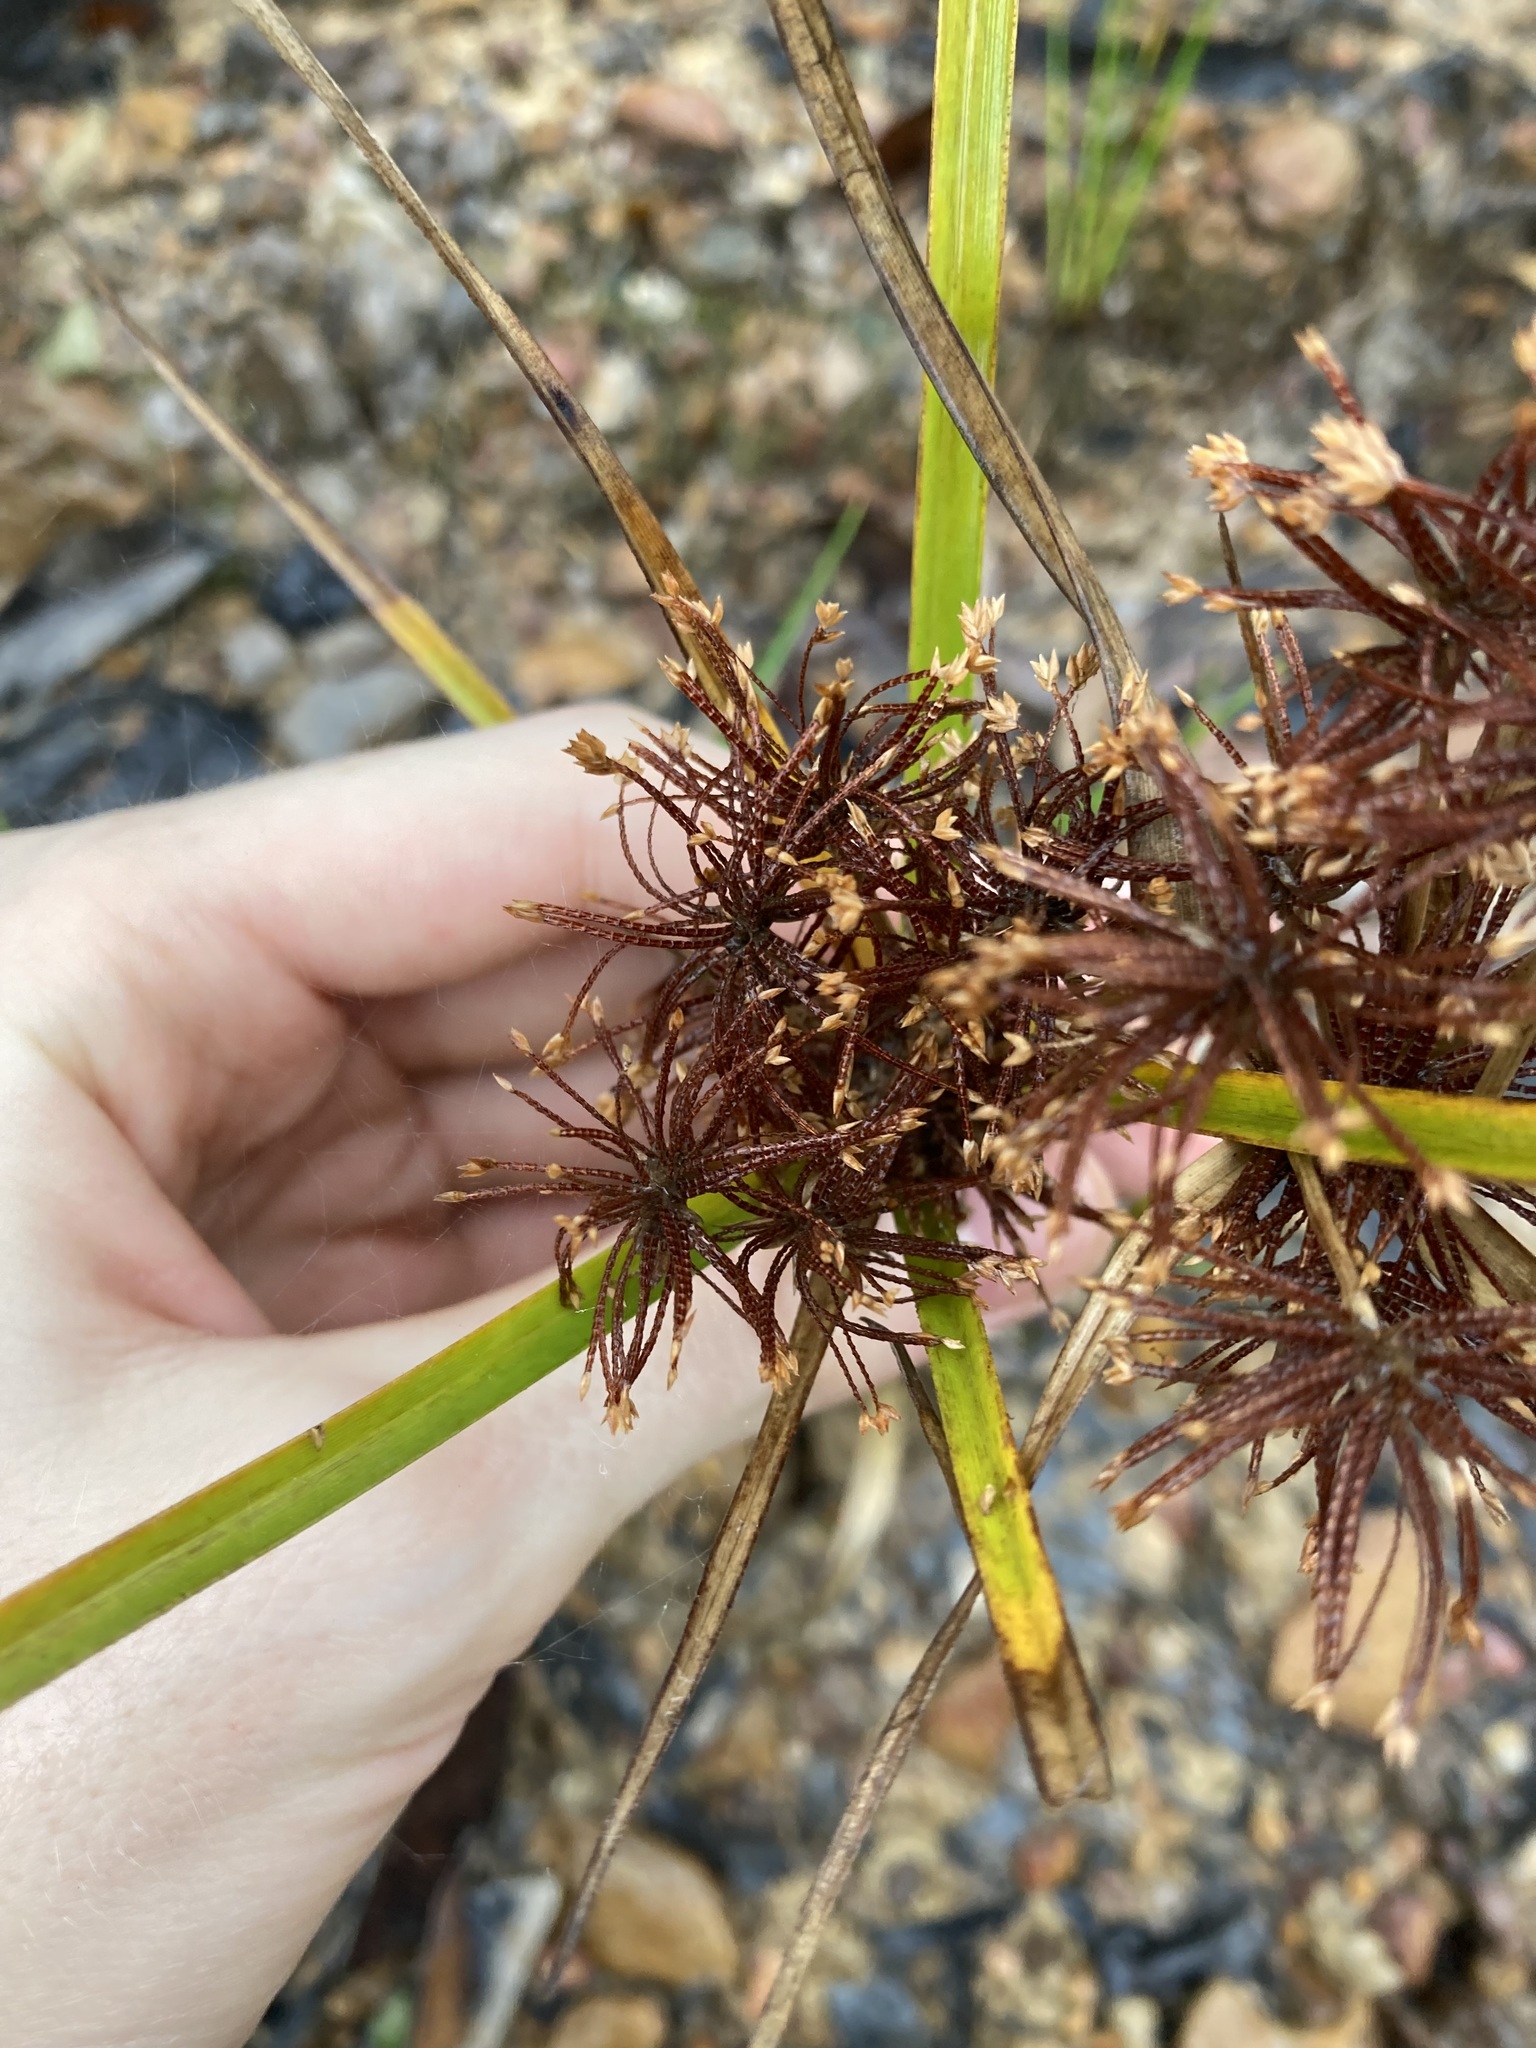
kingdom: Plantae
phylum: Tracheophyta
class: Liliopsida
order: Poales
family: Cyperaceae
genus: Cyperus
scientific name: Cyperus eragrostis
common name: Tall flatsedge
